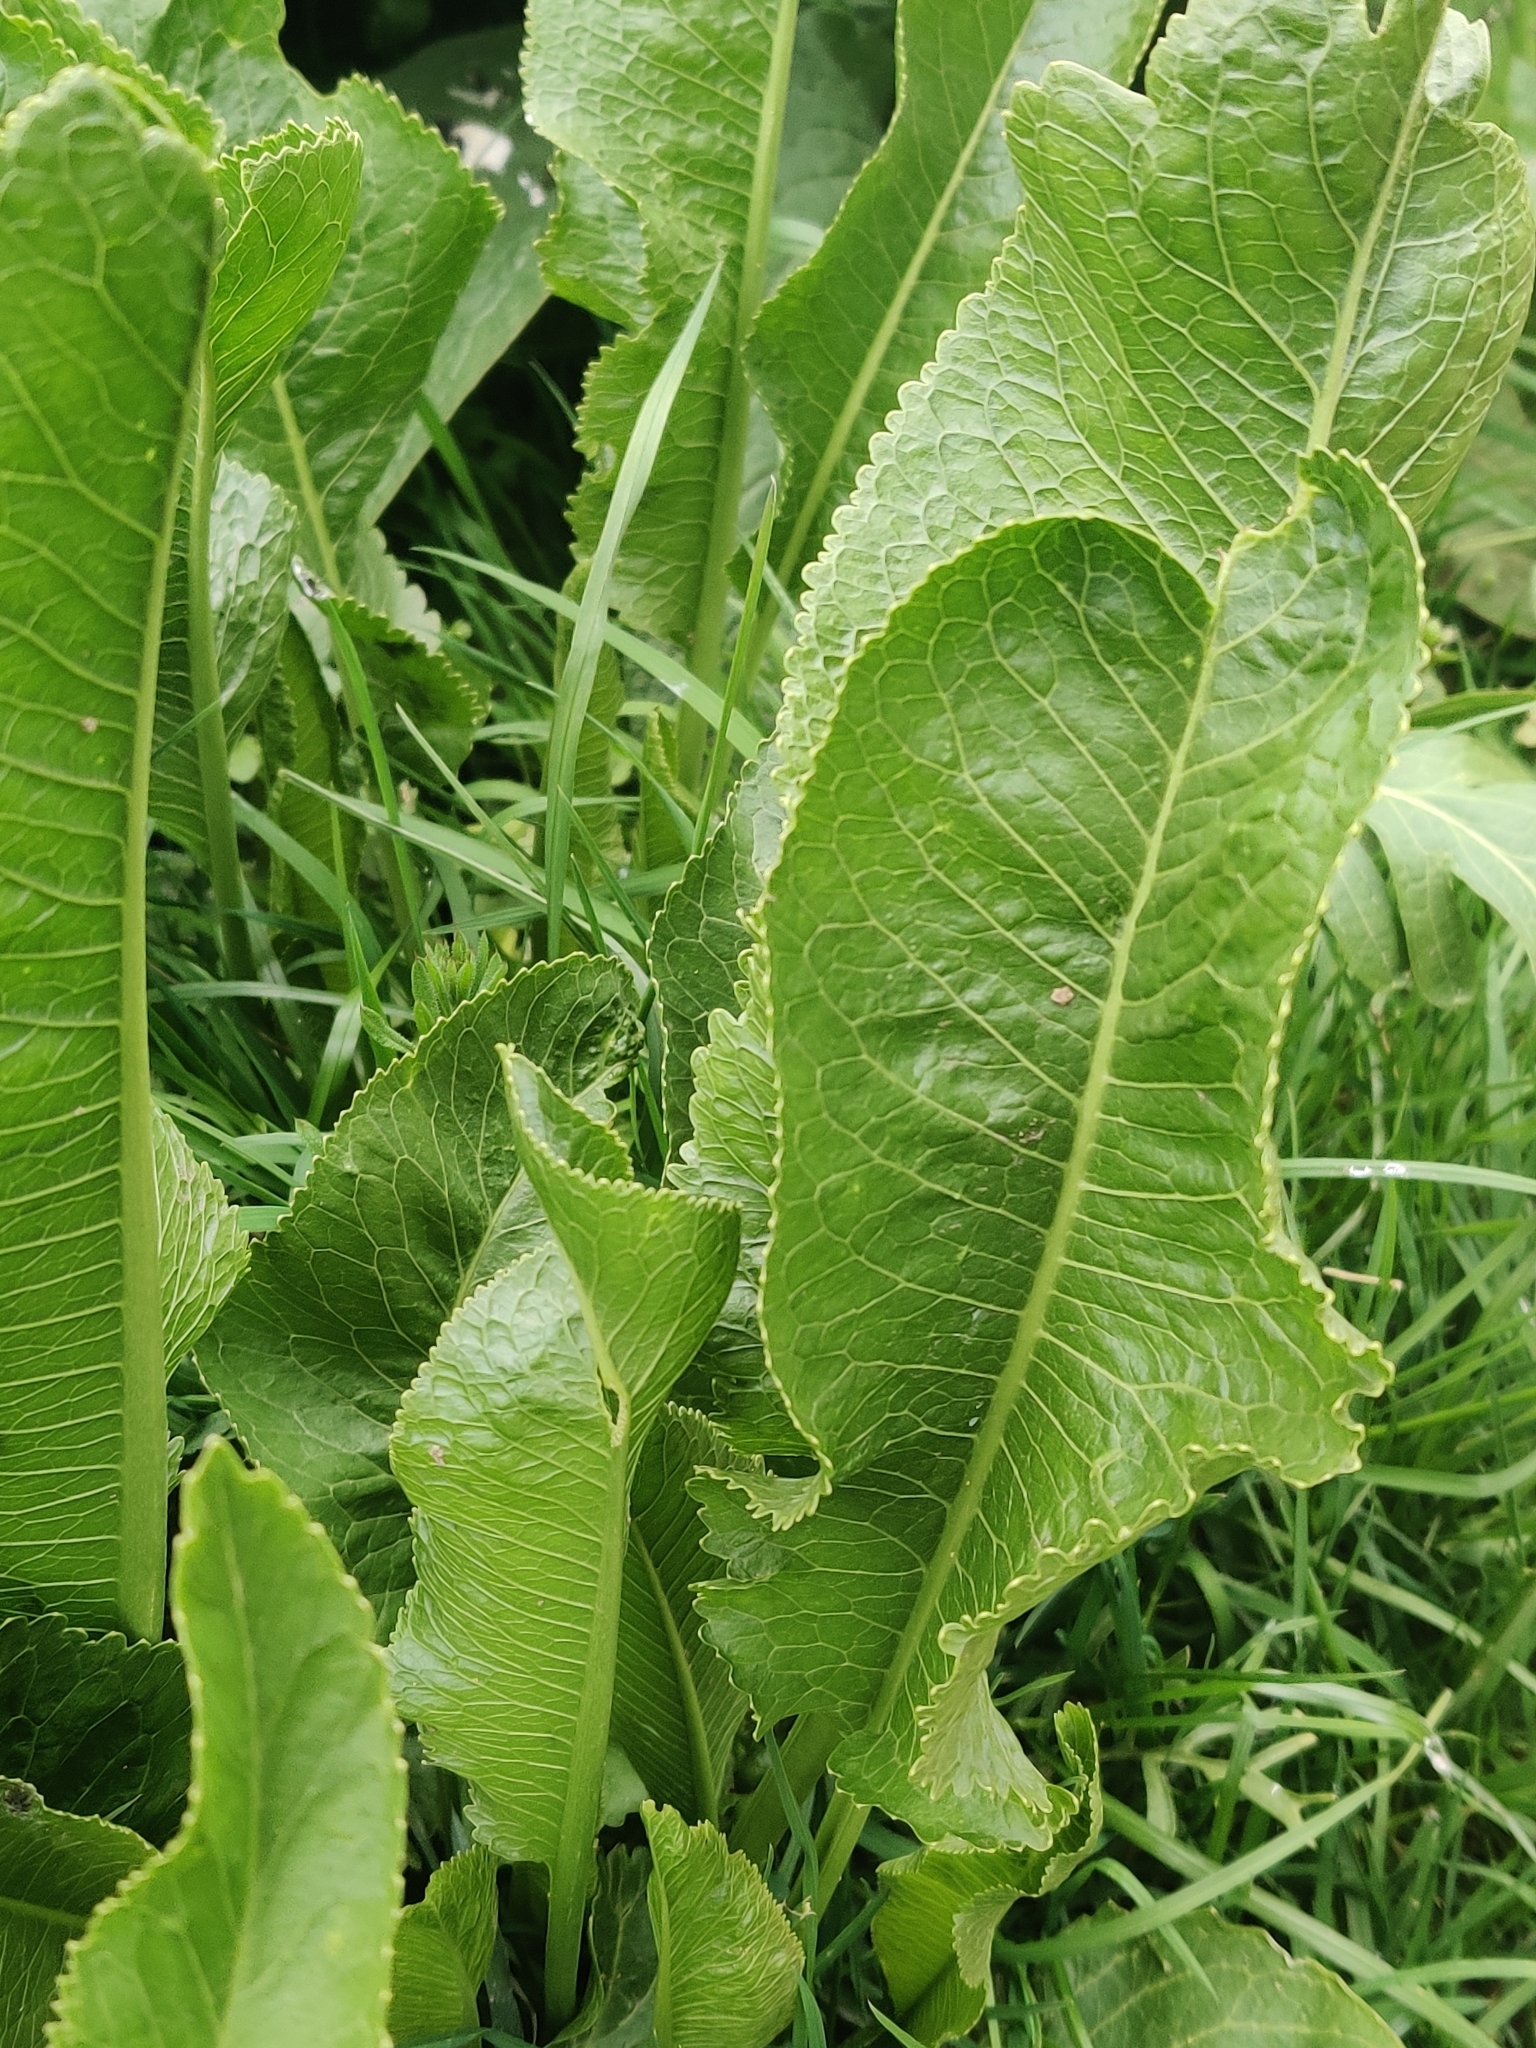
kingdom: Plantae
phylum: Tracheophyta
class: Magnoliopsida
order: Brassicales
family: Brassicaceae
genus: Armoracia
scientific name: Armoracia rusticana
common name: Horseradish
